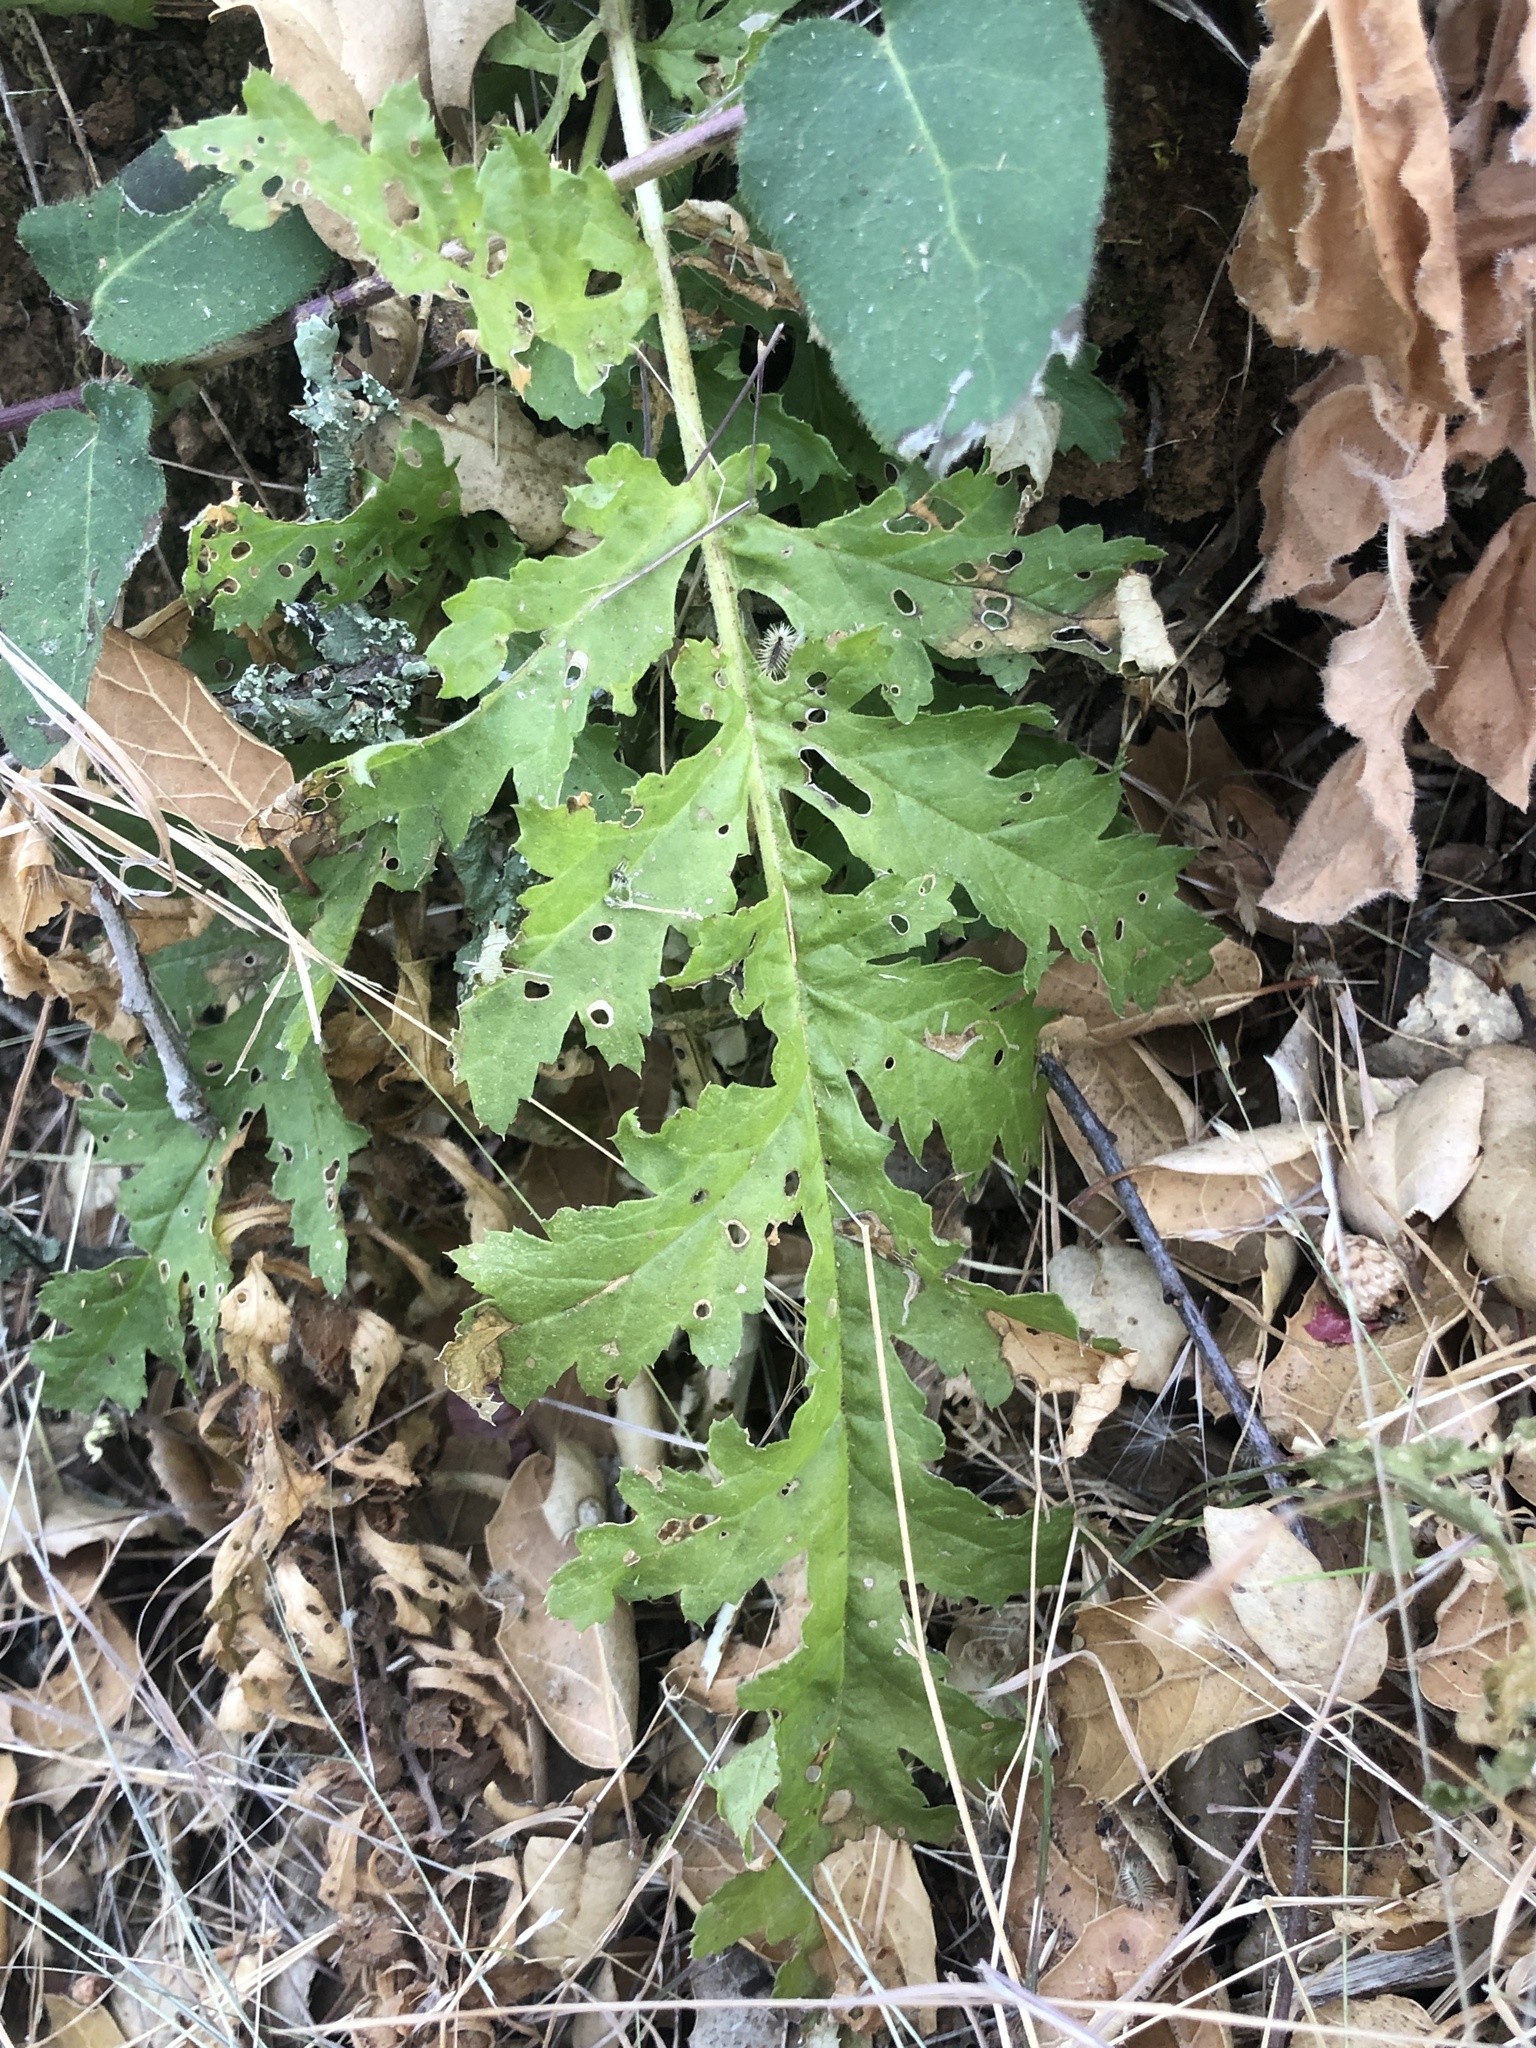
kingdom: Plantae
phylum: Tracheophyta
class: Magnoliopsida
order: Lamiales
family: Orobanchaceae
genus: Pedicularis
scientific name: Pedicularis densiflora
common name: Indian warrior
